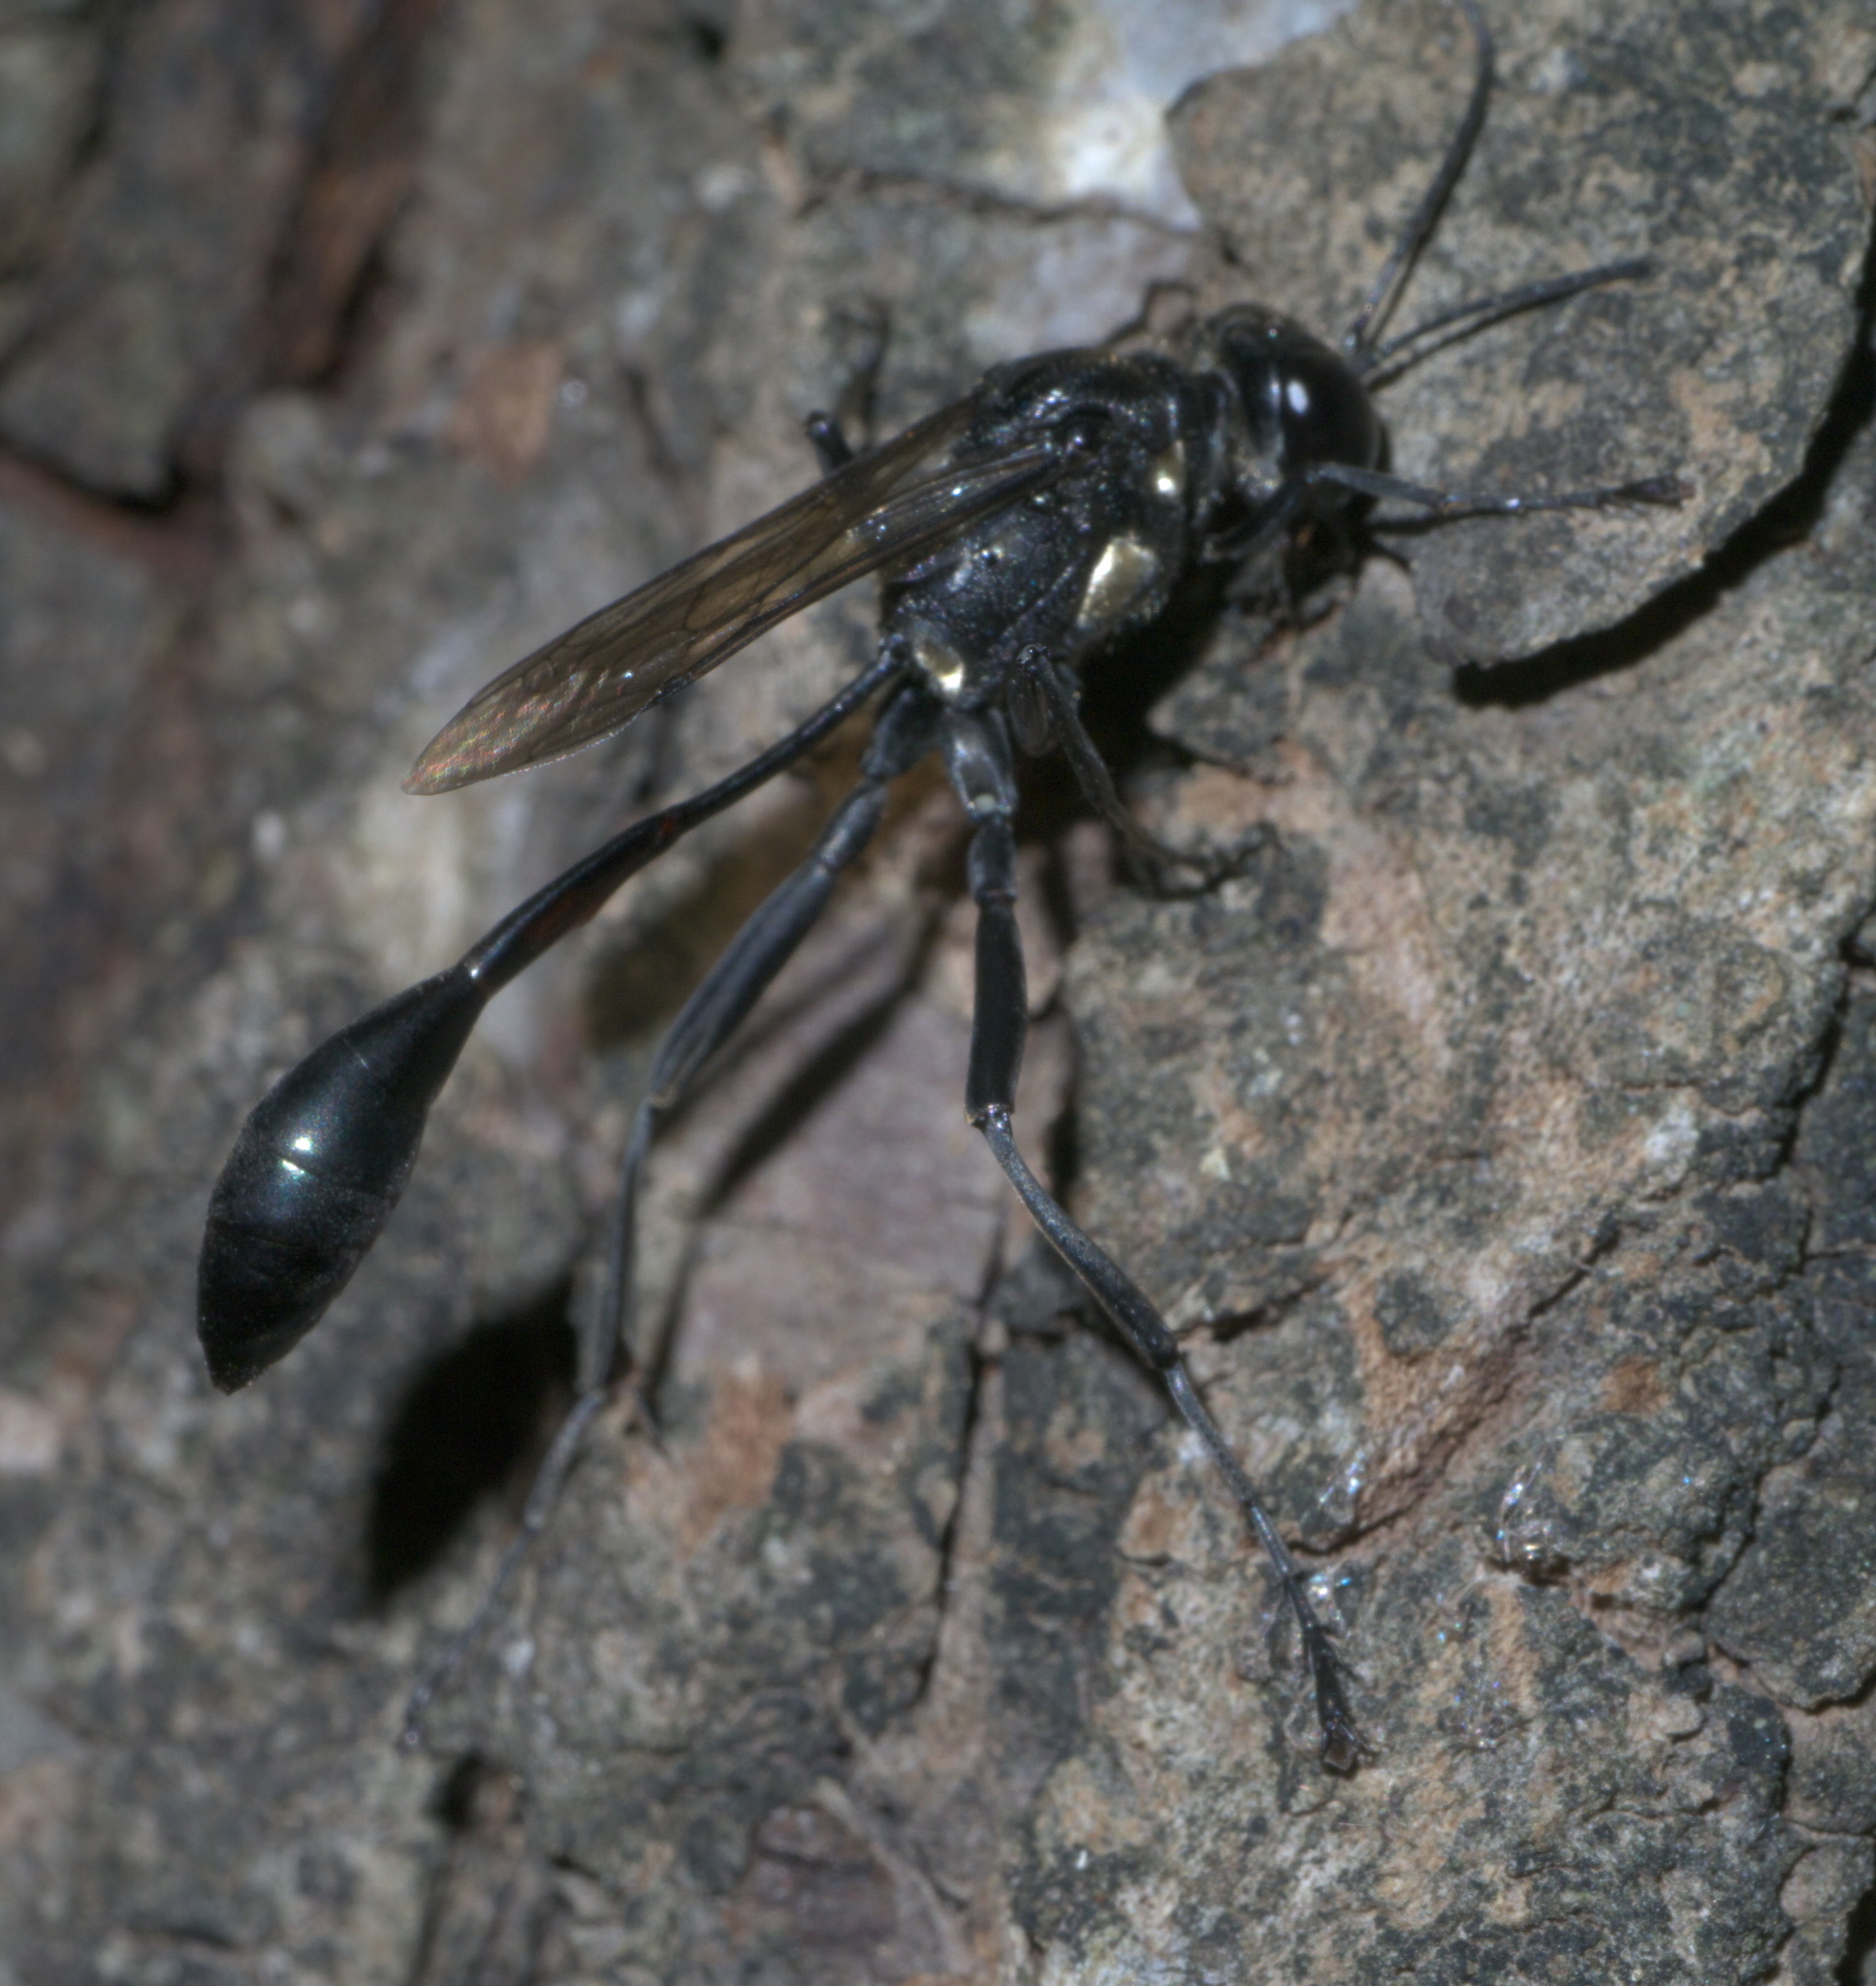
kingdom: Animalia
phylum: Arthropoda
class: Insecta
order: Hymenoptera
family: Sphecidae
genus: Eremnophila
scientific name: Eremnophila aureonotata
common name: Gold-marked thread-waisted wasp
